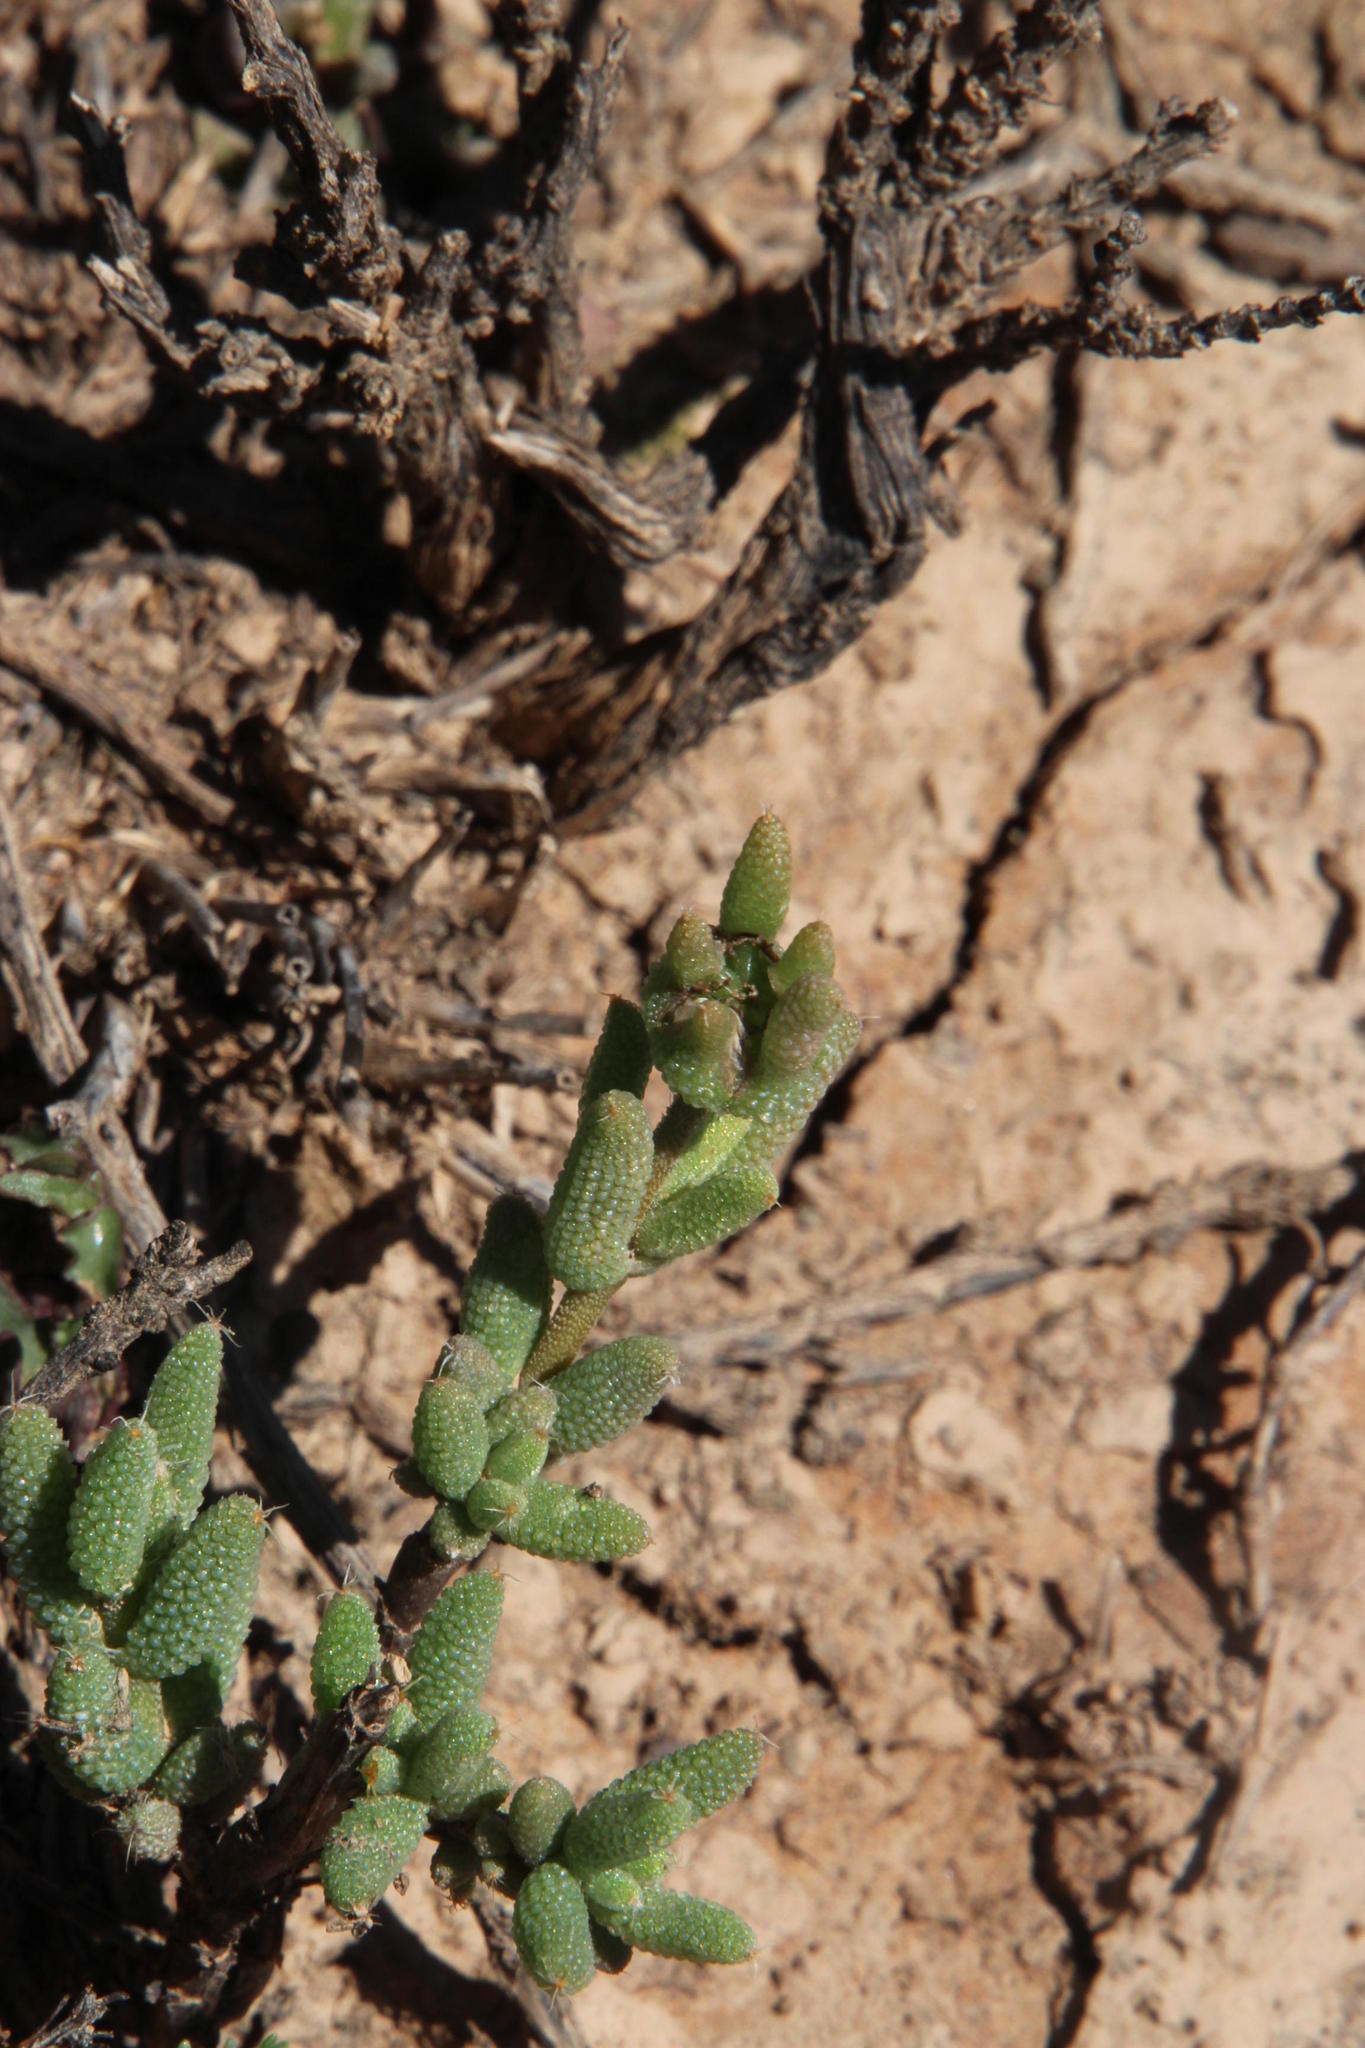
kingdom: Plantae
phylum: Tracheophyta
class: Magnoliopsida
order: Caryophyllales
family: Aizoaceae
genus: Trichodiadema
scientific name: Trichodiadema setuliferum
